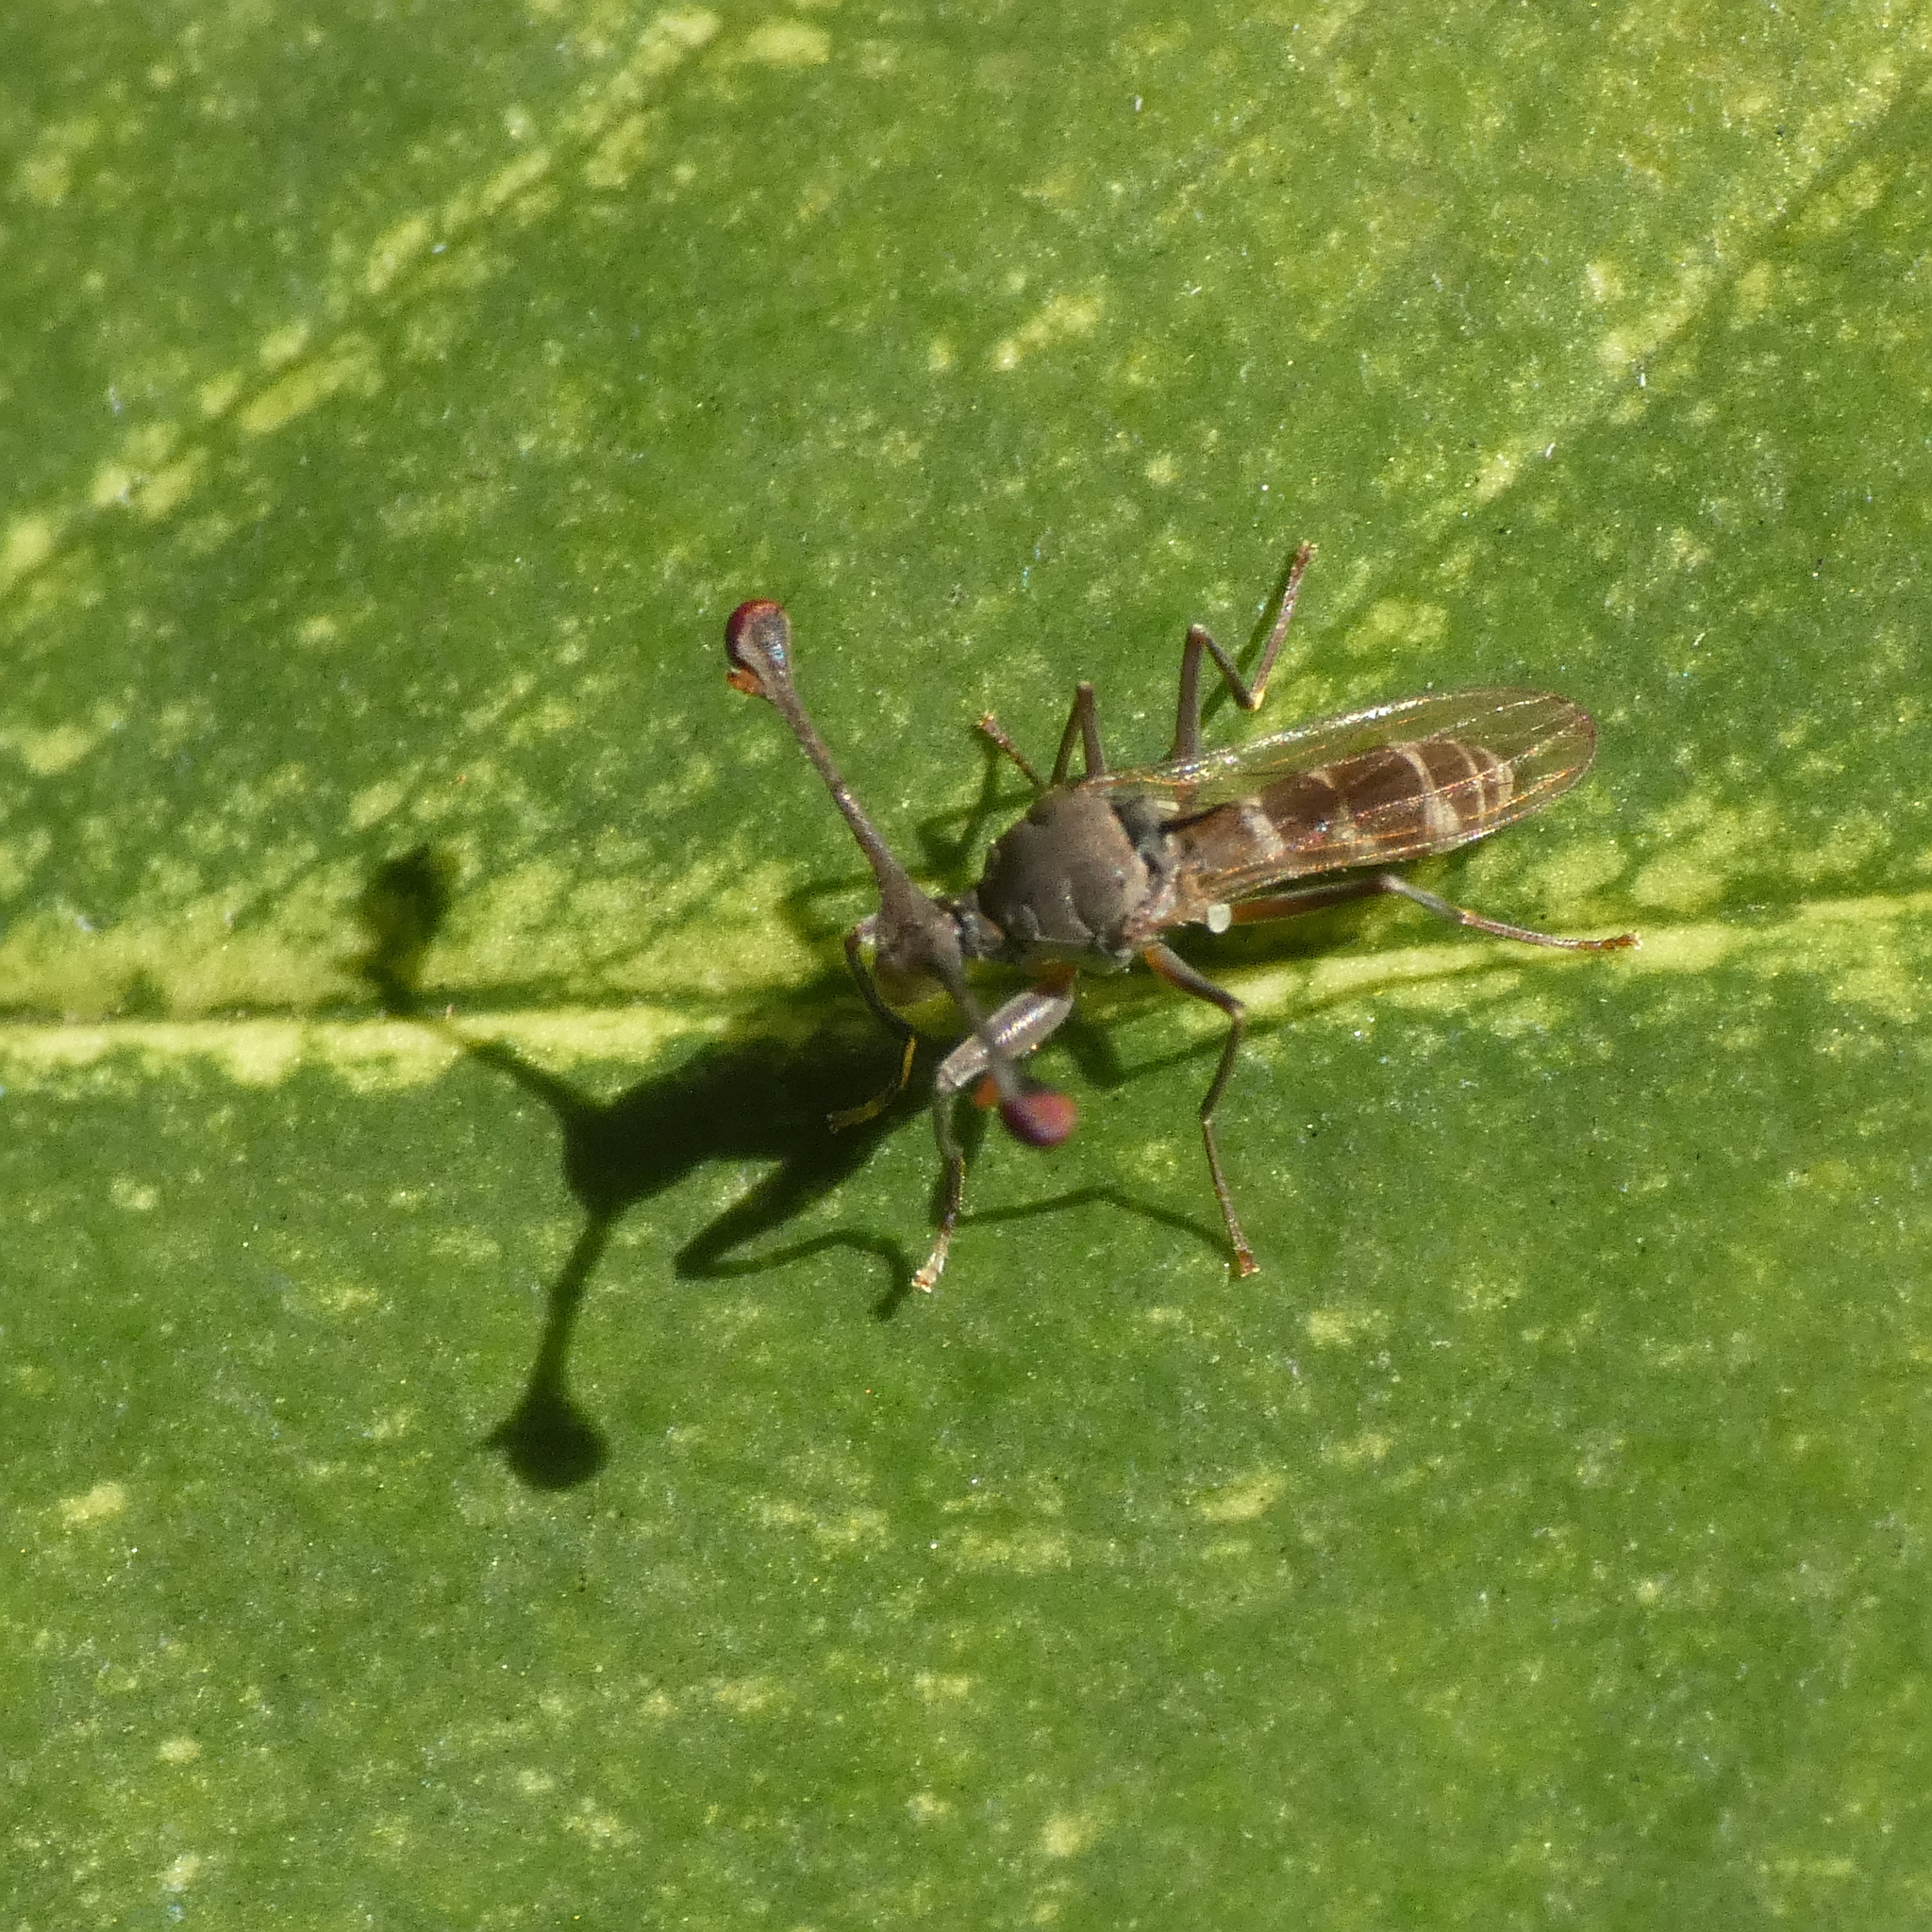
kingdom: Animalia
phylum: Arthropoda
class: Insecta
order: Diptera
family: Diopsidae
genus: Diasemopsis
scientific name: Diasemopsis signata
